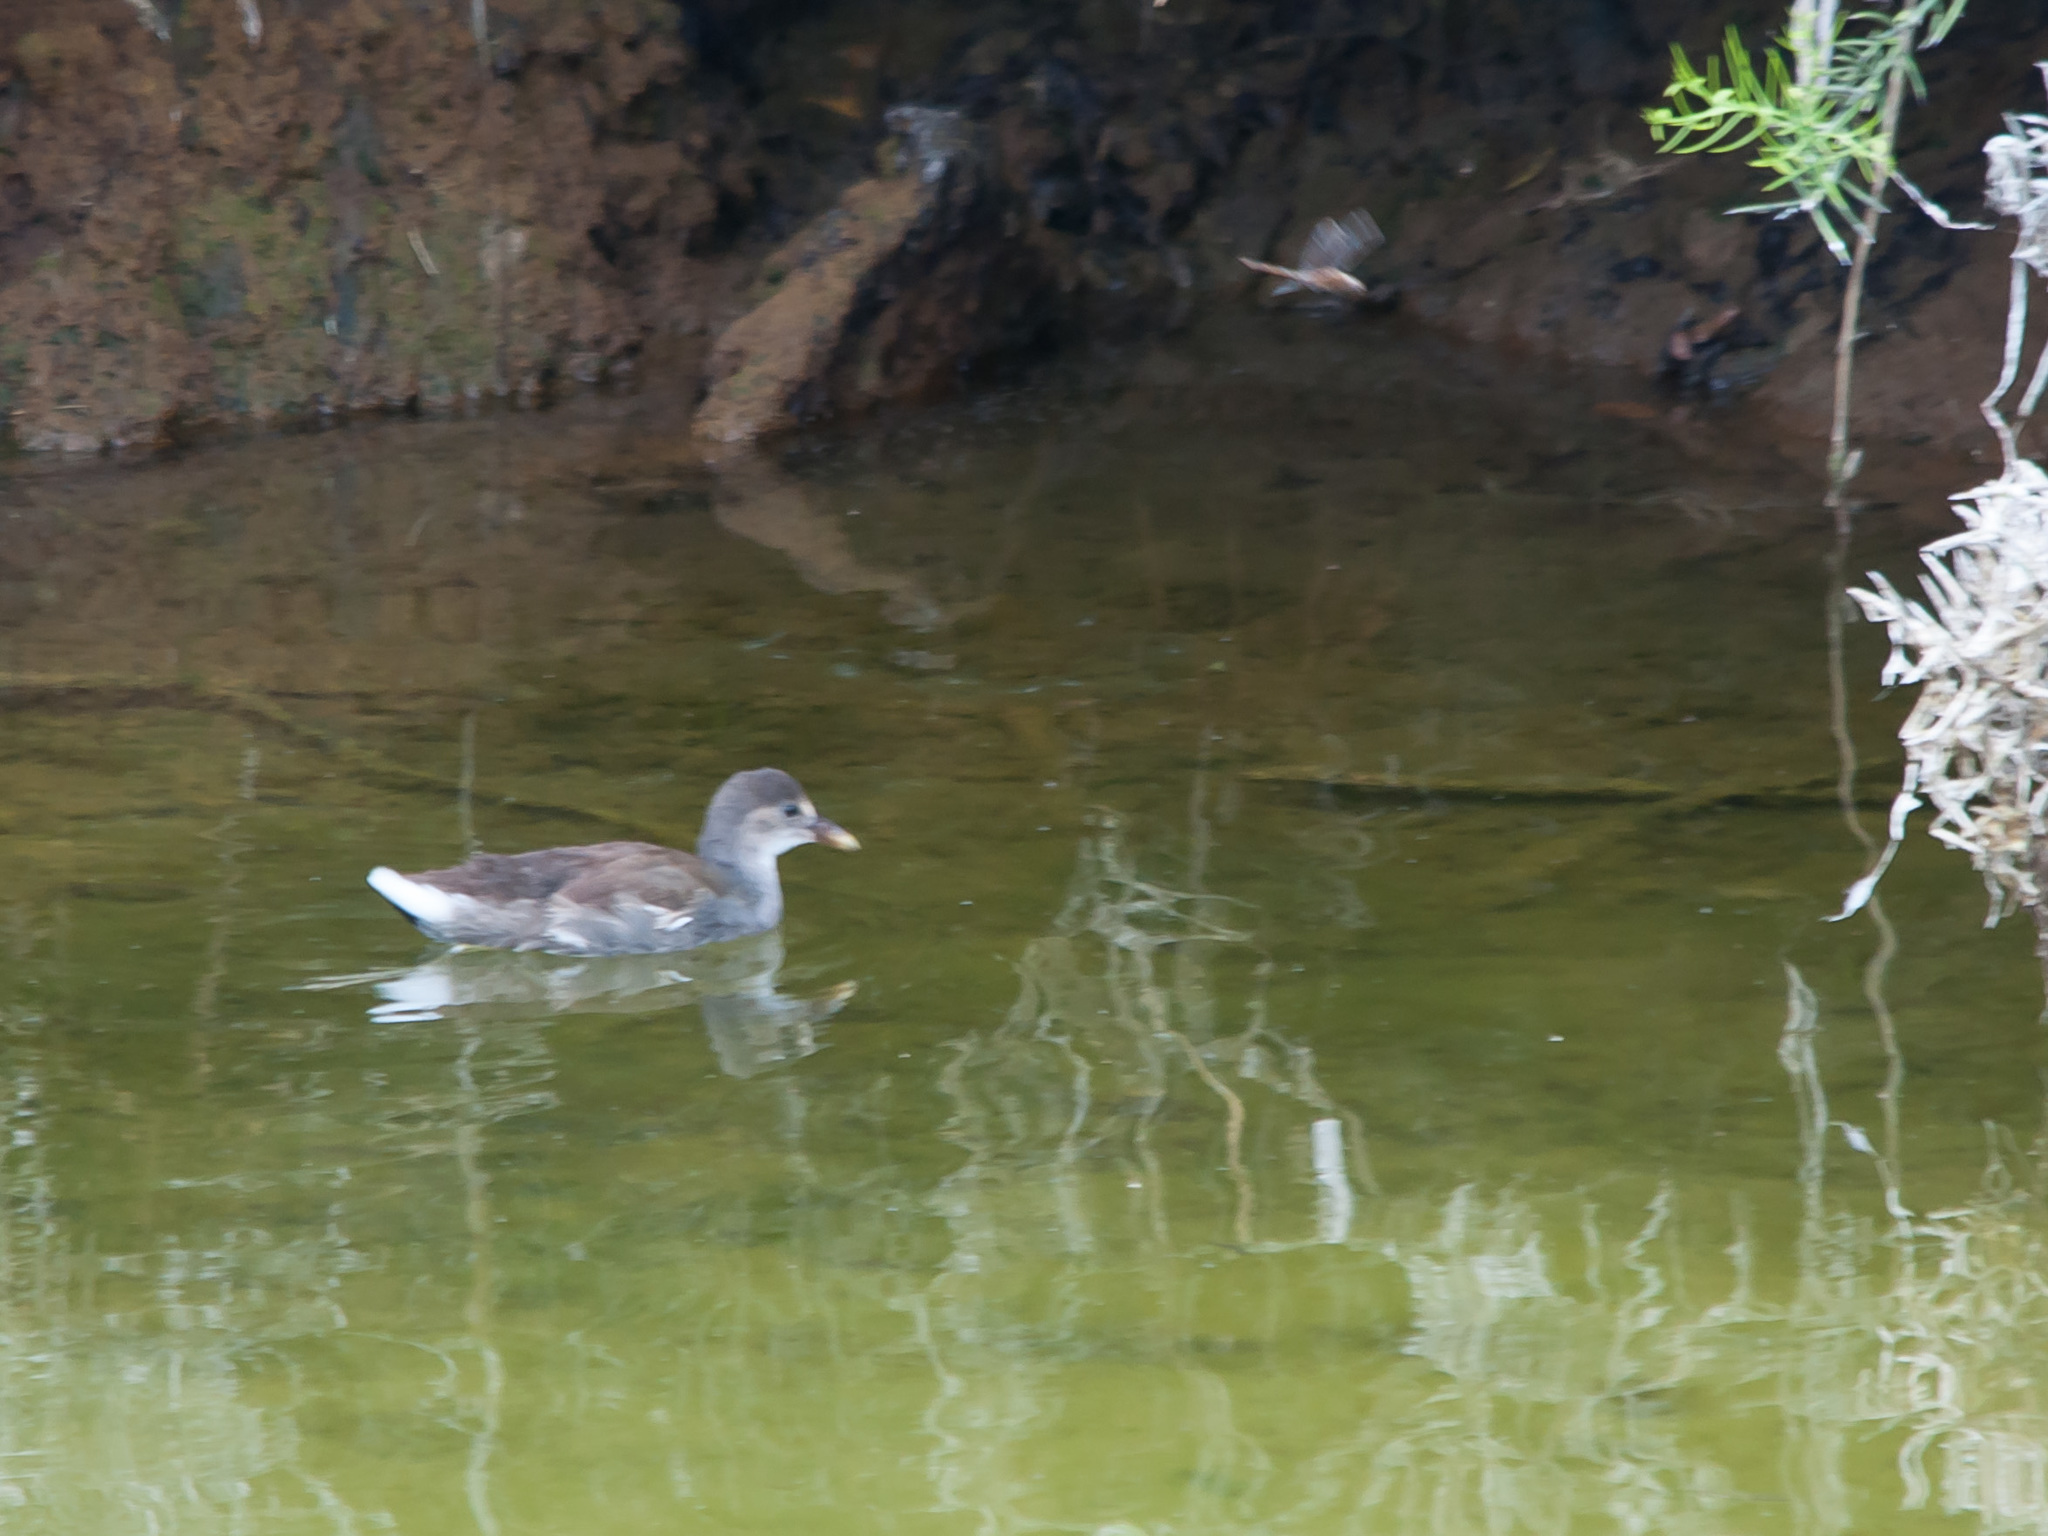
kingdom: Animalia
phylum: Chordata
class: Aves
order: Gruiformes
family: Rallidae
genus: Gallinula
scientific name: Gallinula chloropus
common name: Common moorhen
